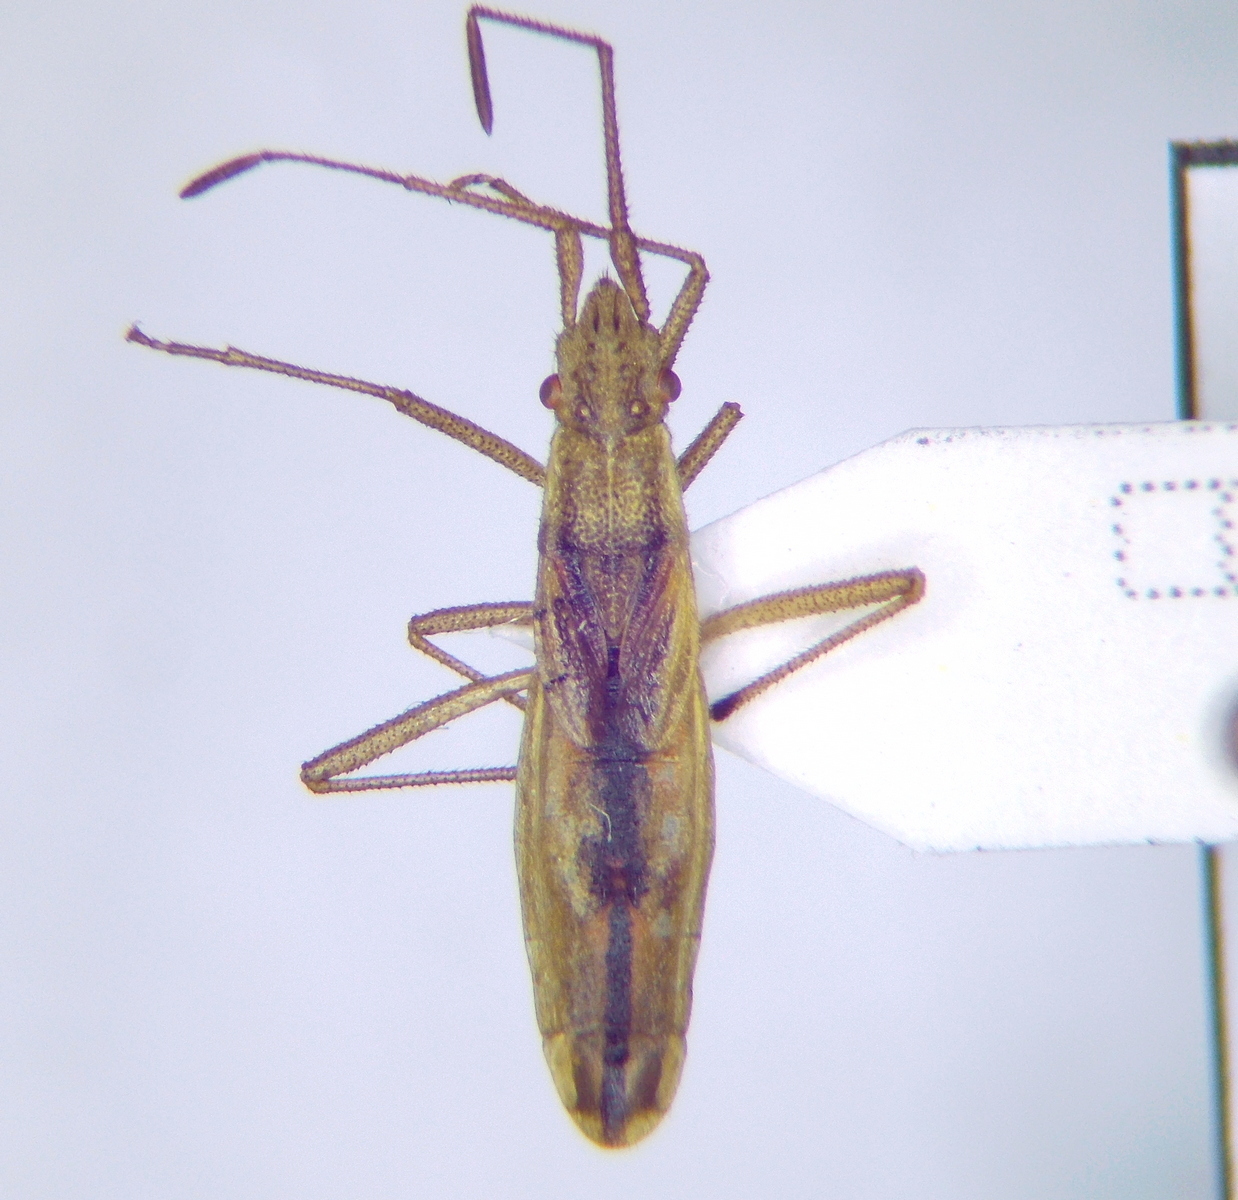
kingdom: Animalia
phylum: Arthropoda
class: Insecta
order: Hemiptera
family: Rhopalidae
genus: Myrmus
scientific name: Myrmus miriformis
